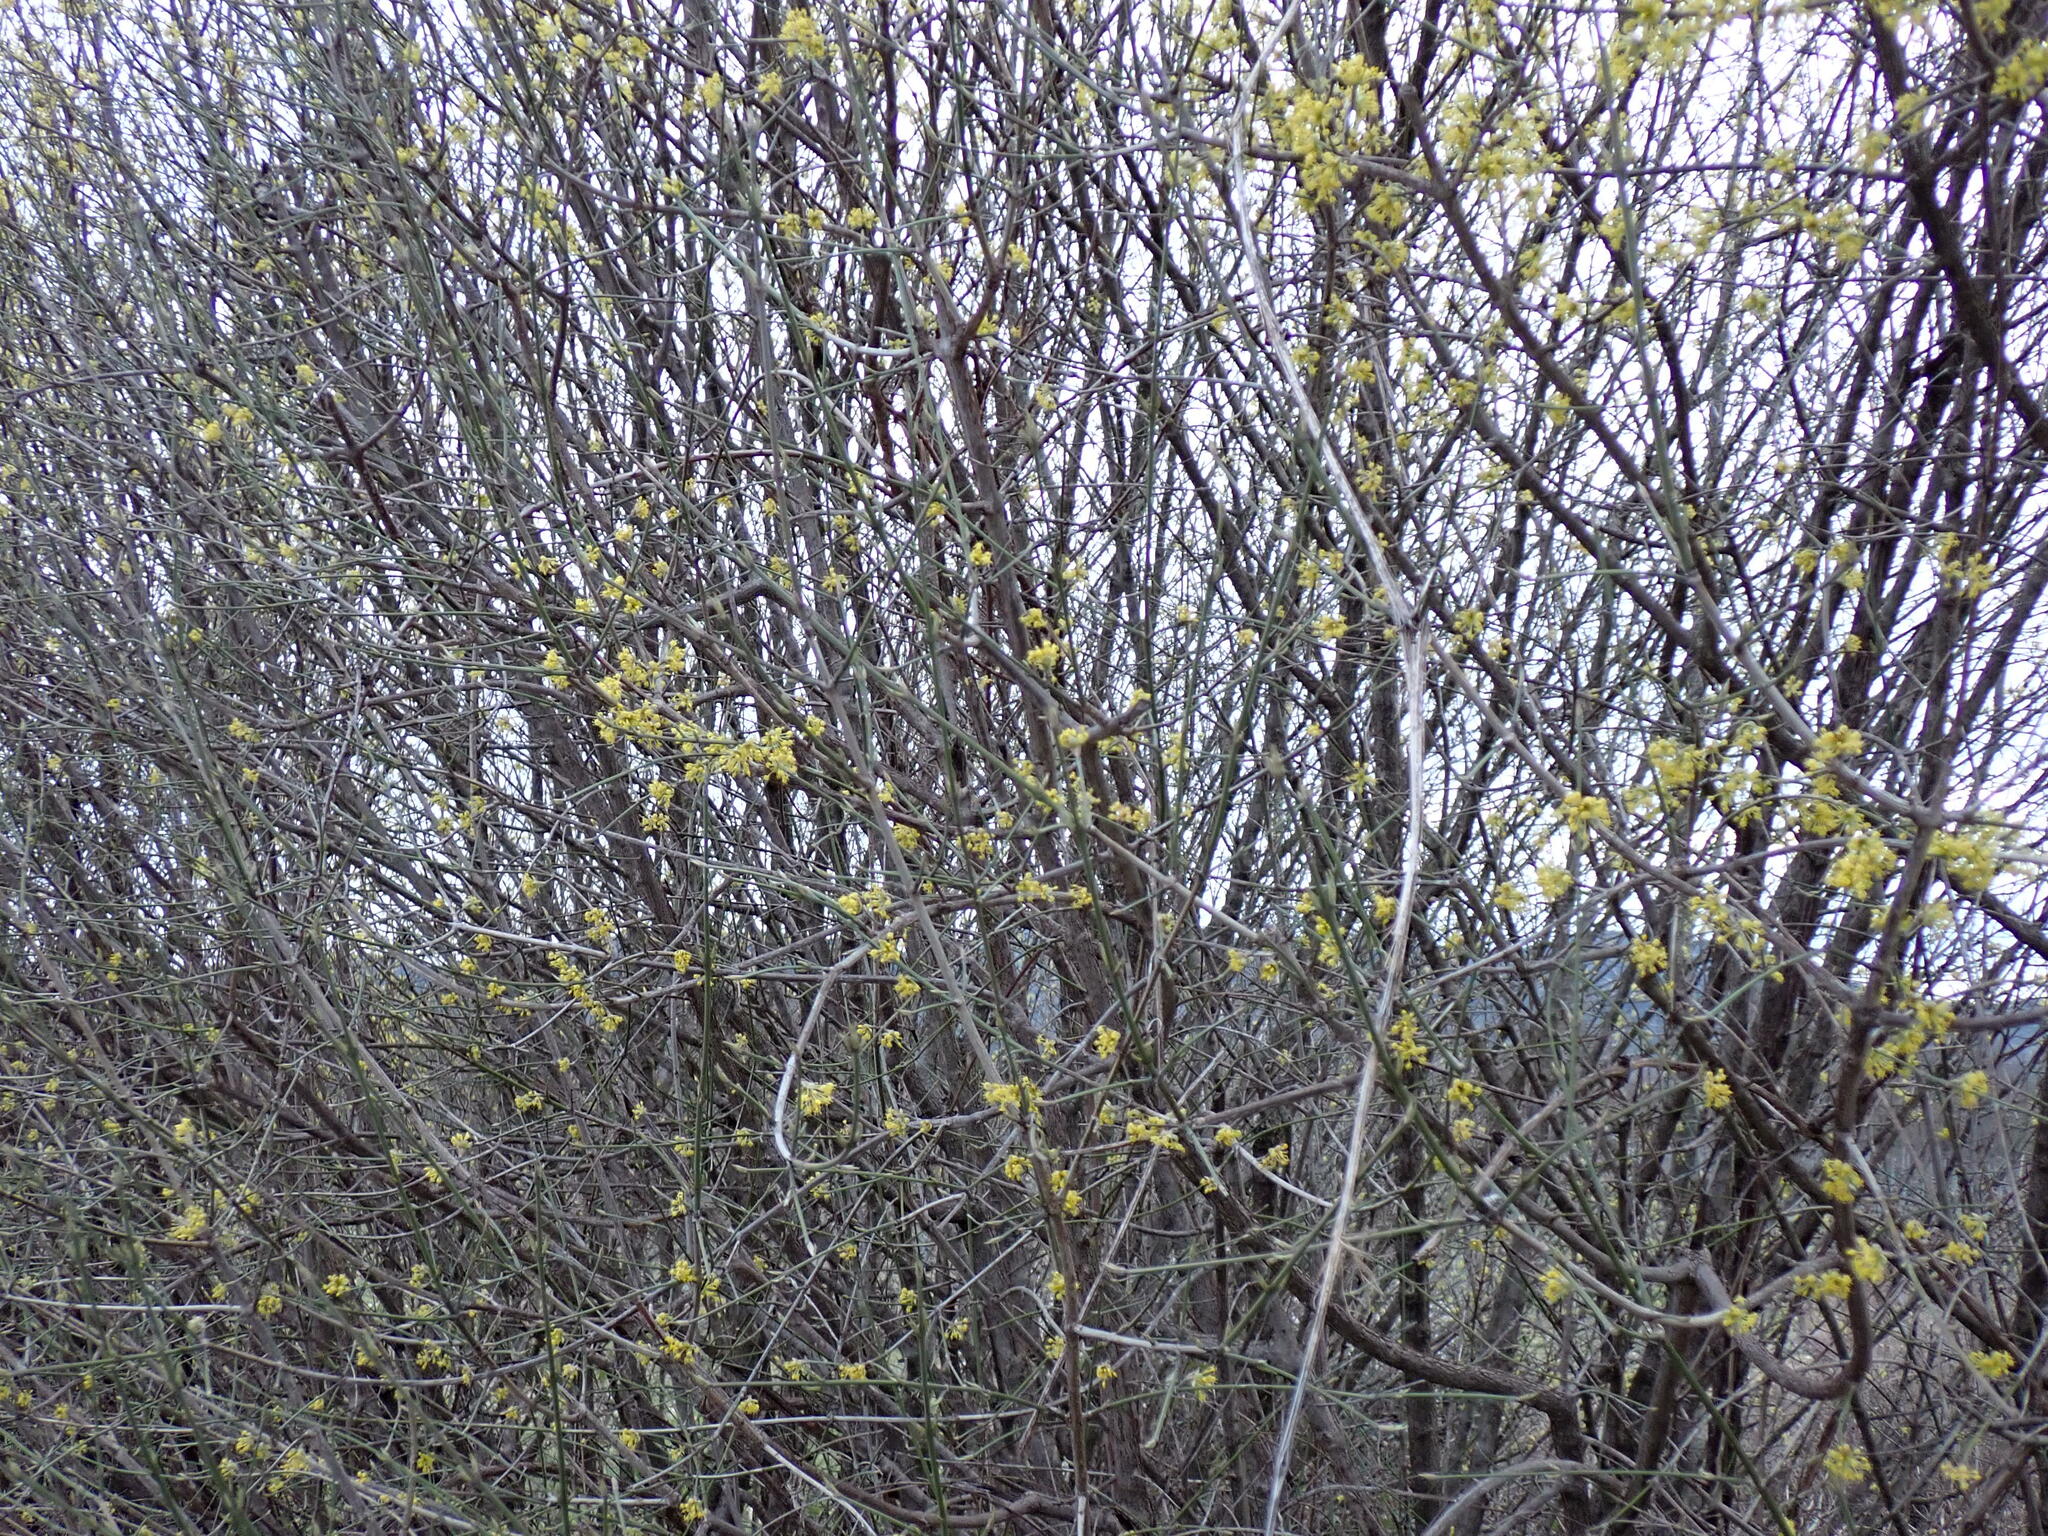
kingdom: Plantae
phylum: Tracheophyta
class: Magnoliopsida
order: Cornales
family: Cornaceae
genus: Cornus
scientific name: Cornus mas
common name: Cornelian-cherry
